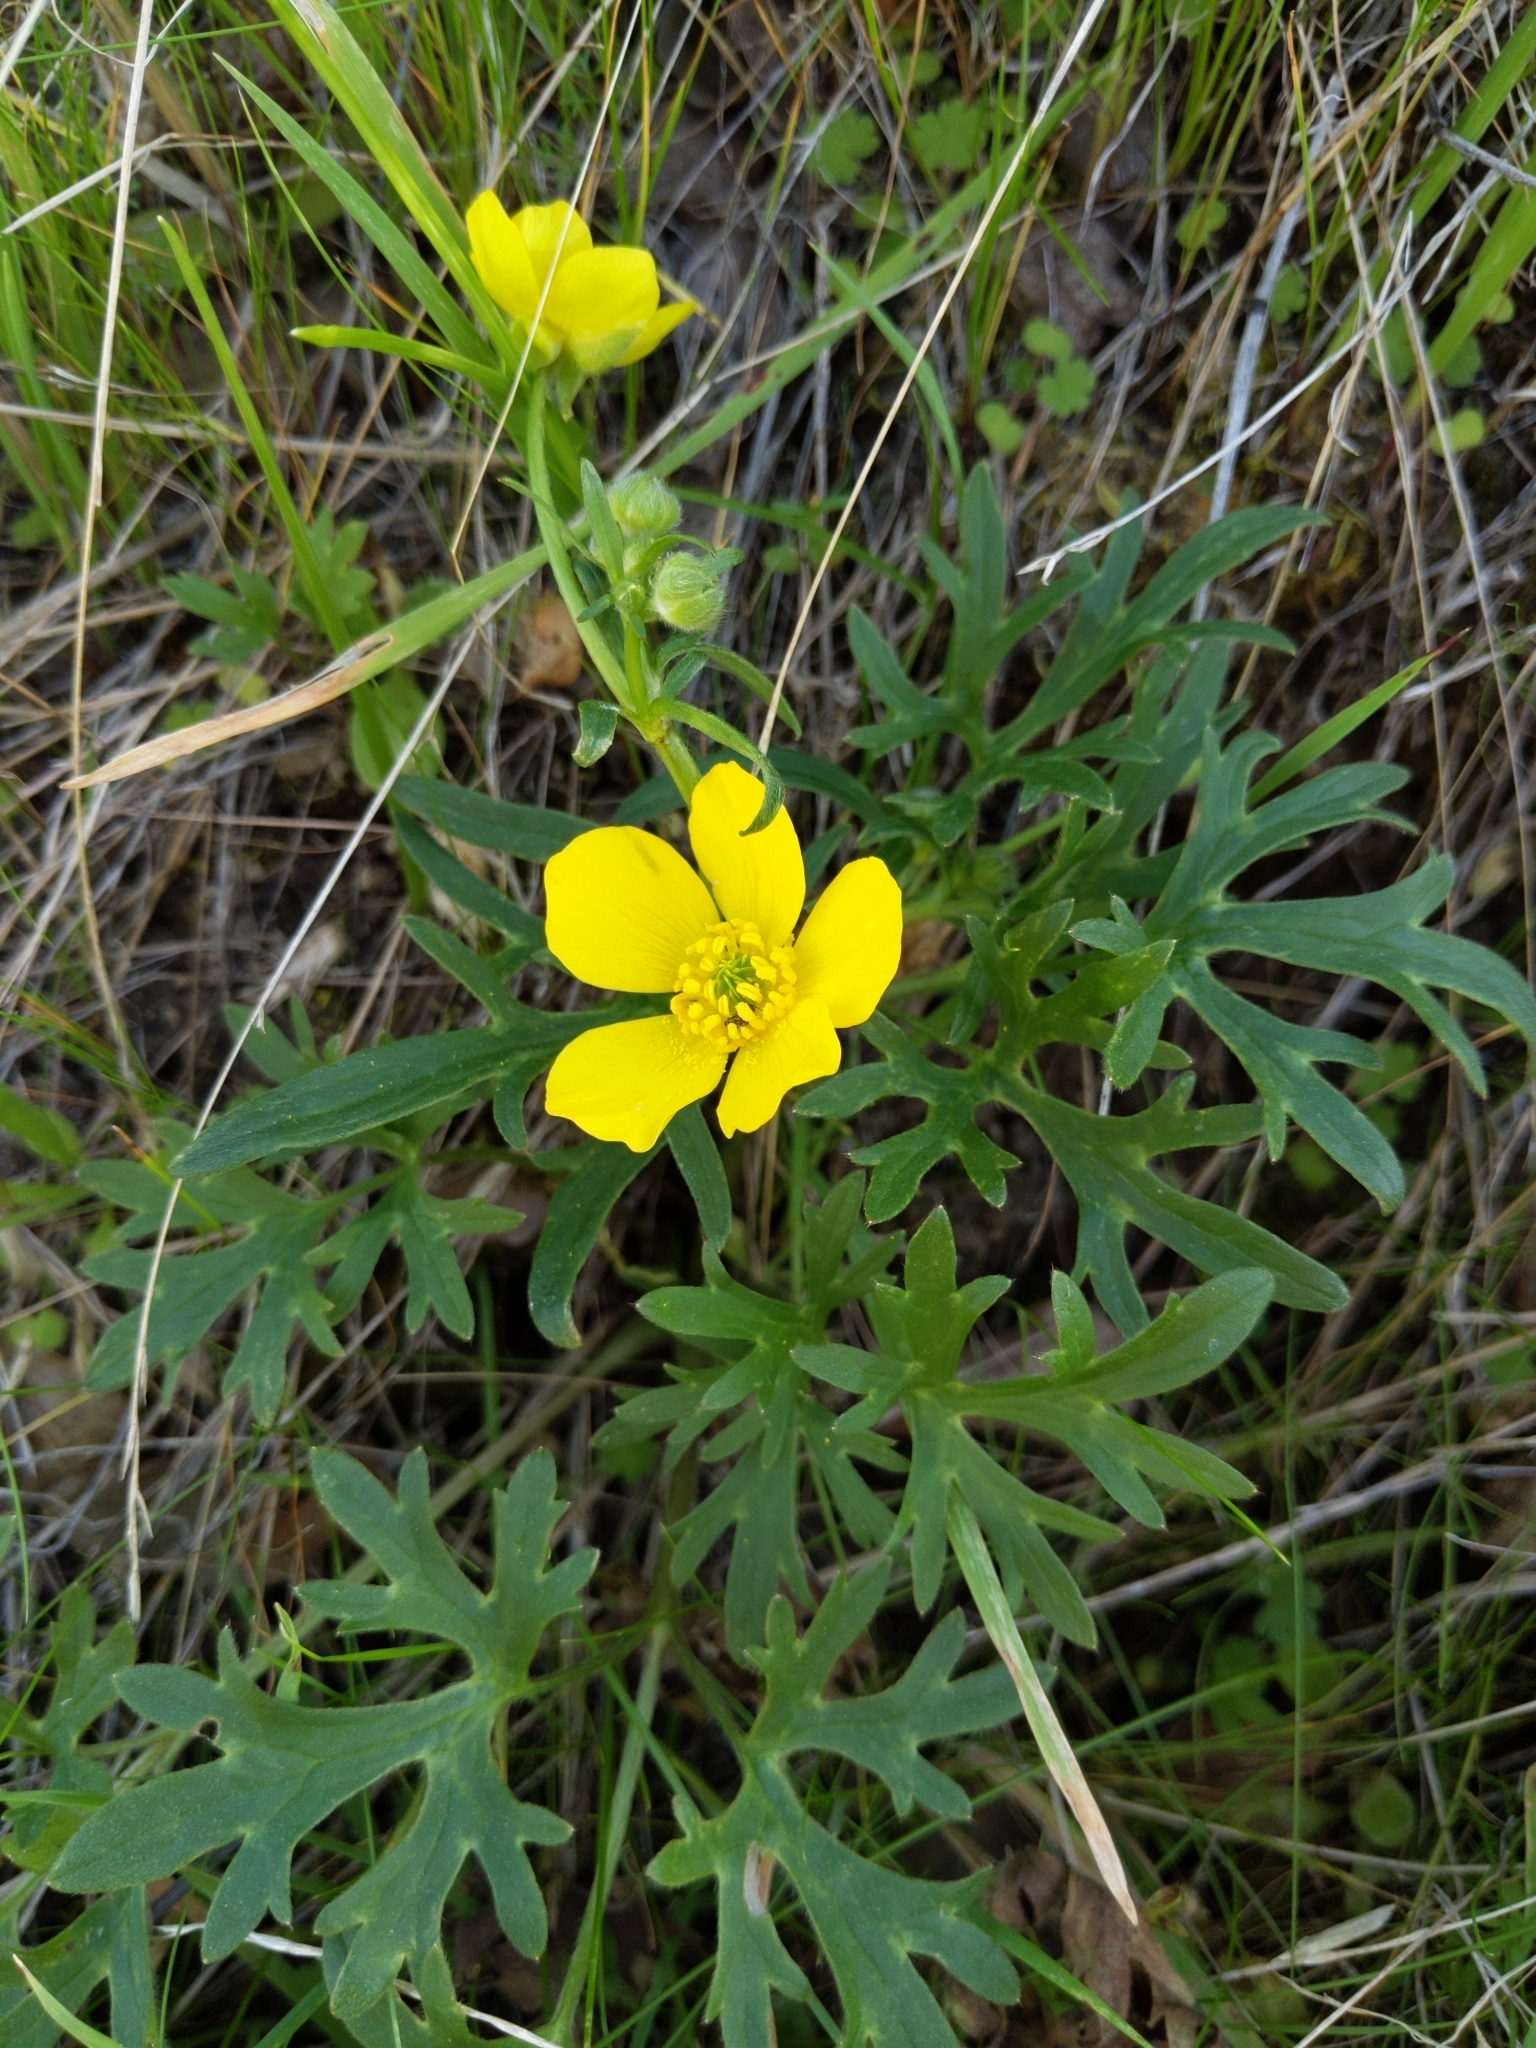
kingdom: Plantae
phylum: Tracheophyta
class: Magnoliopsida
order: Ranunculales
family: Ranunculaceae
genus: Ranunculus
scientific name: Ranunculus canus
